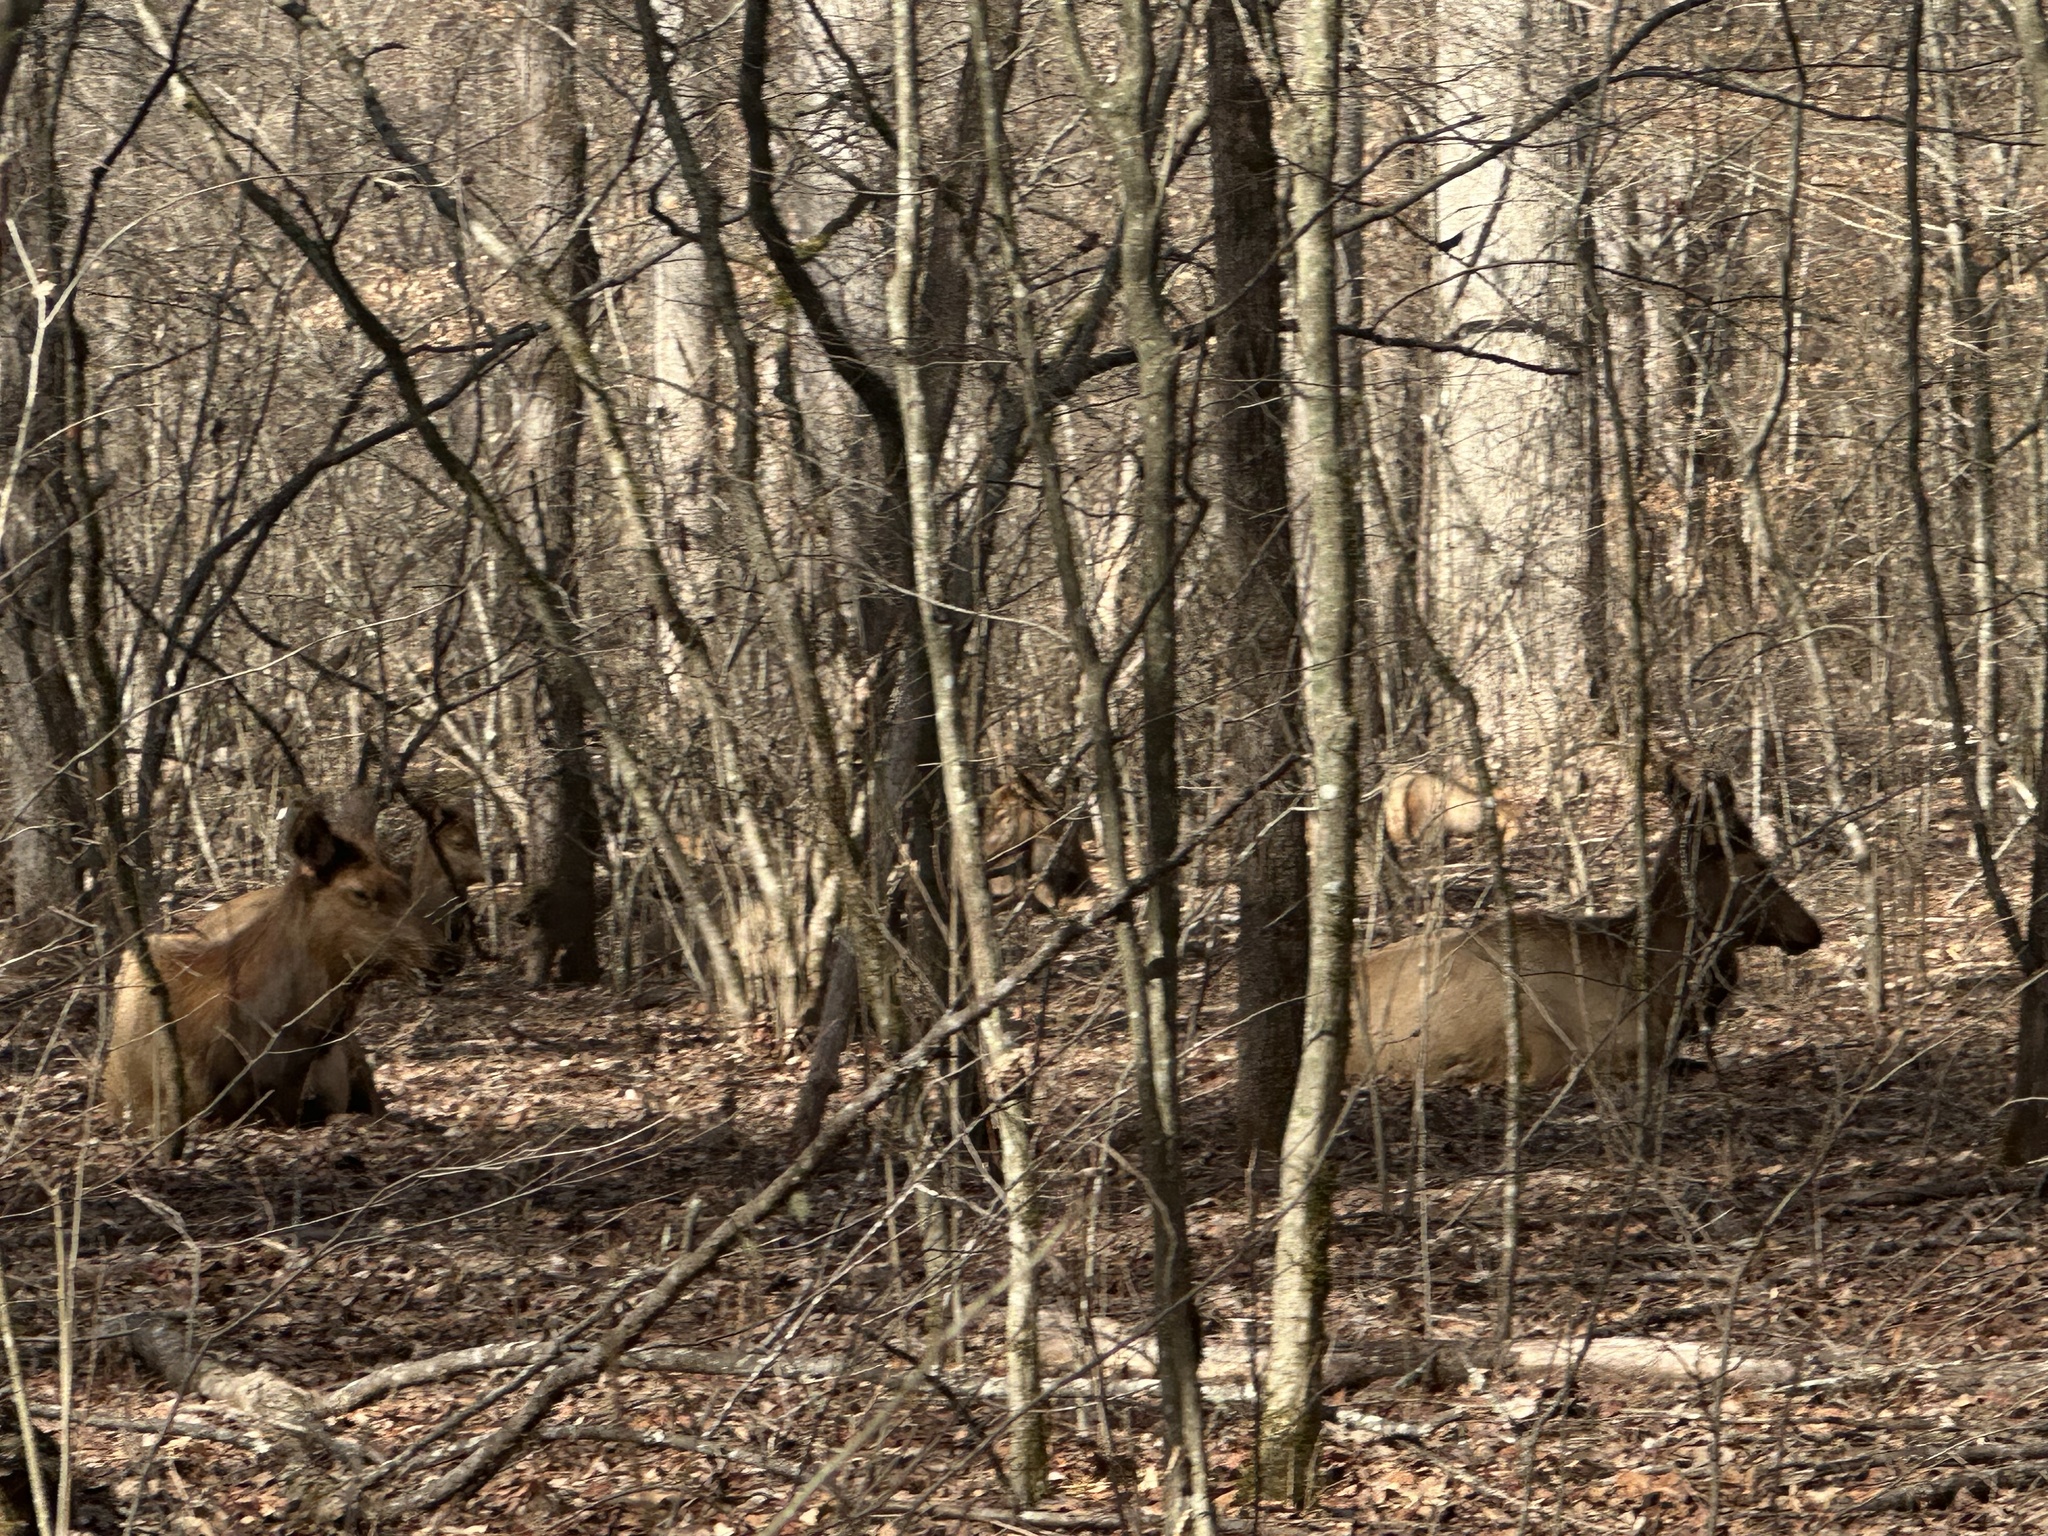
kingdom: Animalia
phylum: Chordata
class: Mammalia
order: Artiodactyla
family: Cervidae
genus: Cervus
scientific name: Cervus elaphus
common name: Red deer
